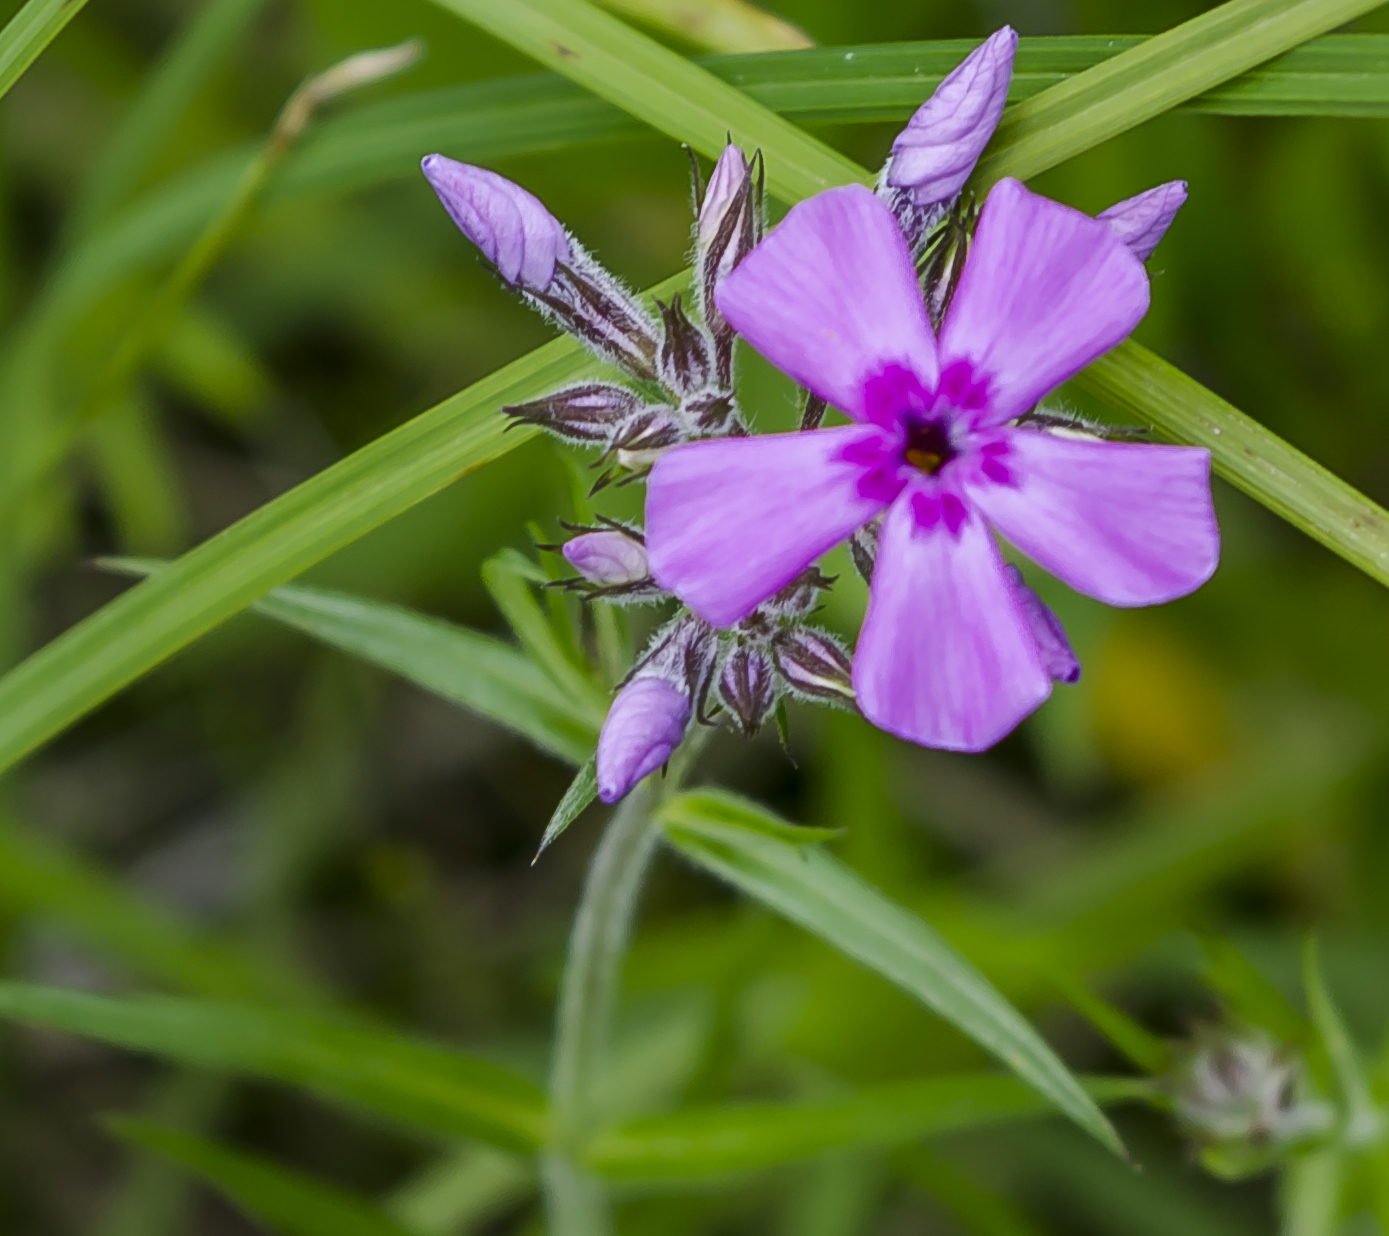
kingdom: Plantae
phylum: Tracheophyta
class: Magnoliopsida
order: Ericales
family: Polemoniaceae
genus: Phlox
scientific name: Phlox pilosa
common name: Prairie phlox
